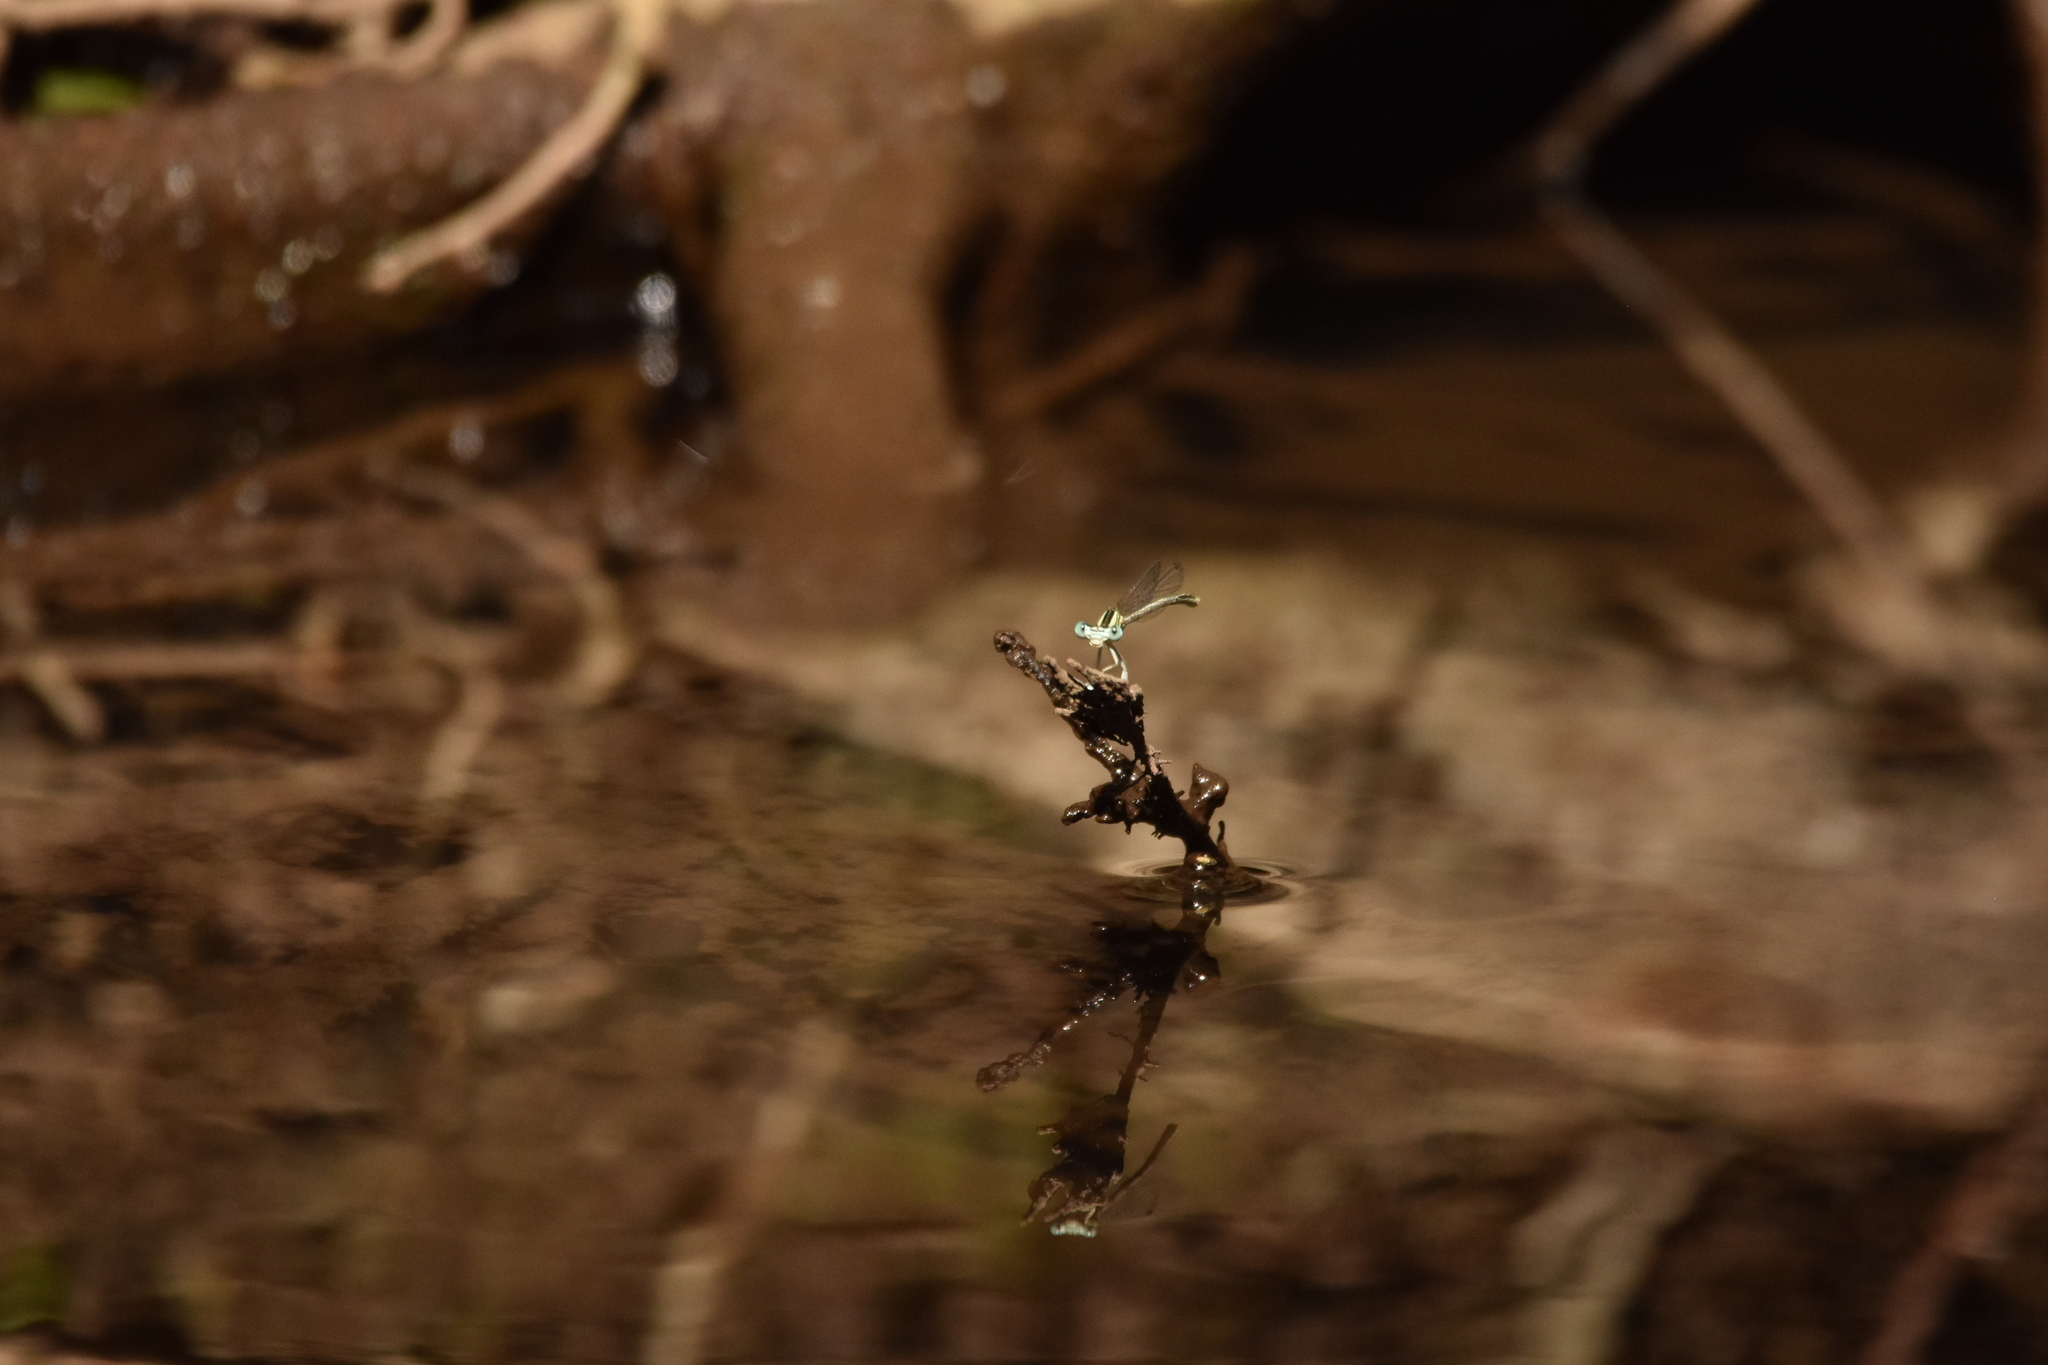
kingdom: Animalia
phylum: Arthropoda
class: Insecta
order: Odonata
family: Platycnemididae
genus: Platycnemis
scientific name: Platycnemis latipes
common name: White featherleg
